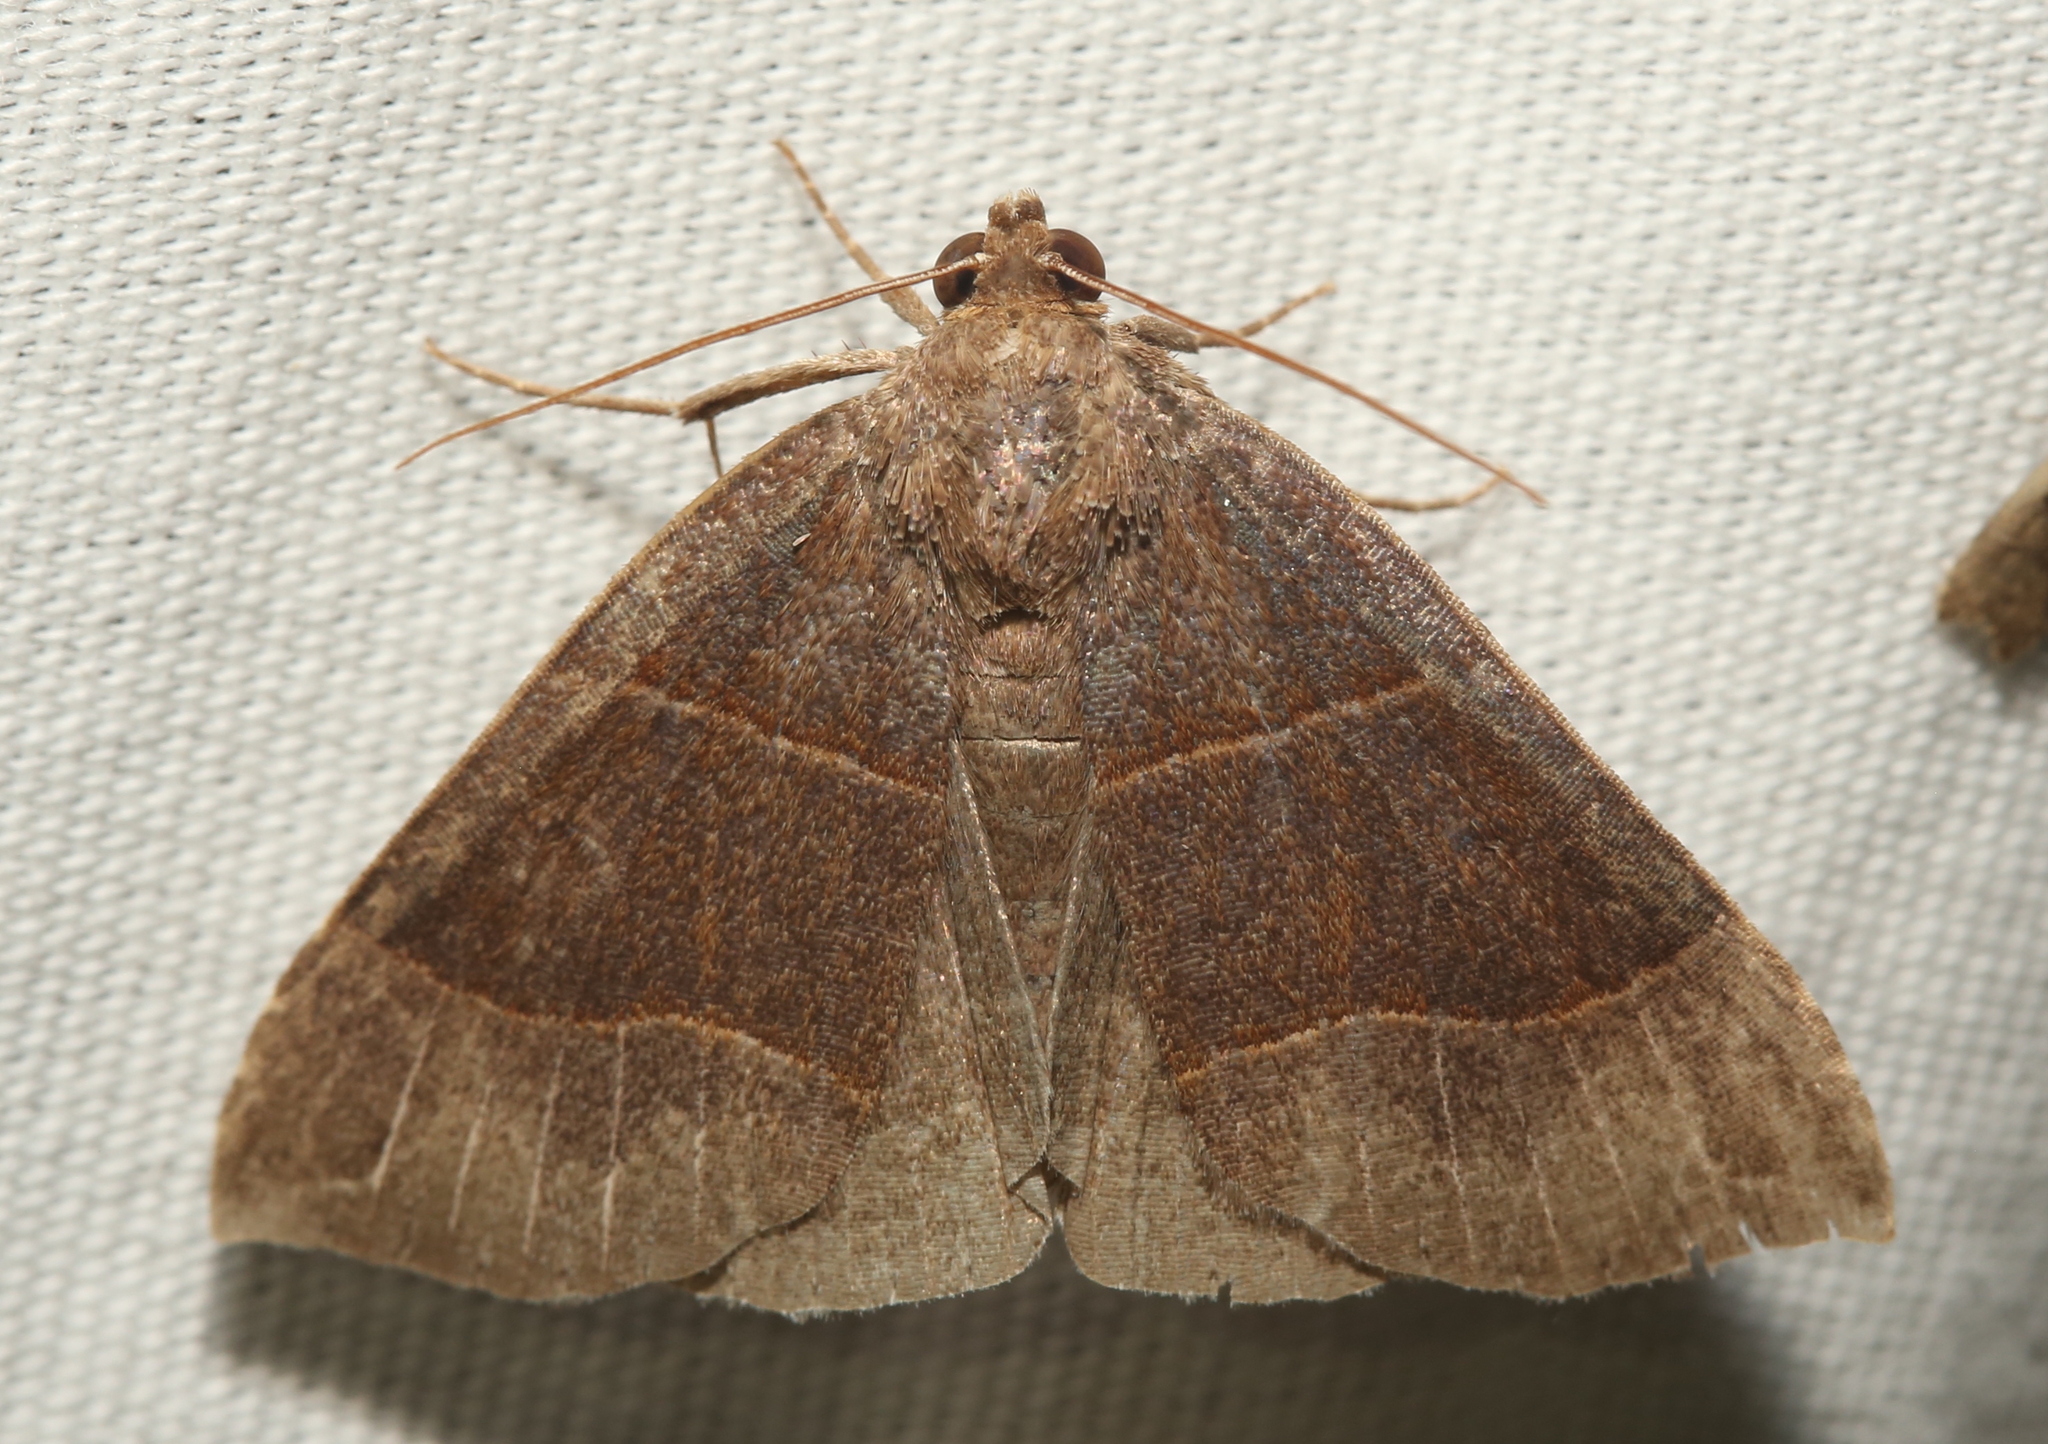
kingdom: Animalia
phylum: Arthropoda
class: Insecta
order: Lepidoptera
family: Erebidae
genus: Parallelia
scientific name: Parallelia bistriaris
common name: Maple looper moth
